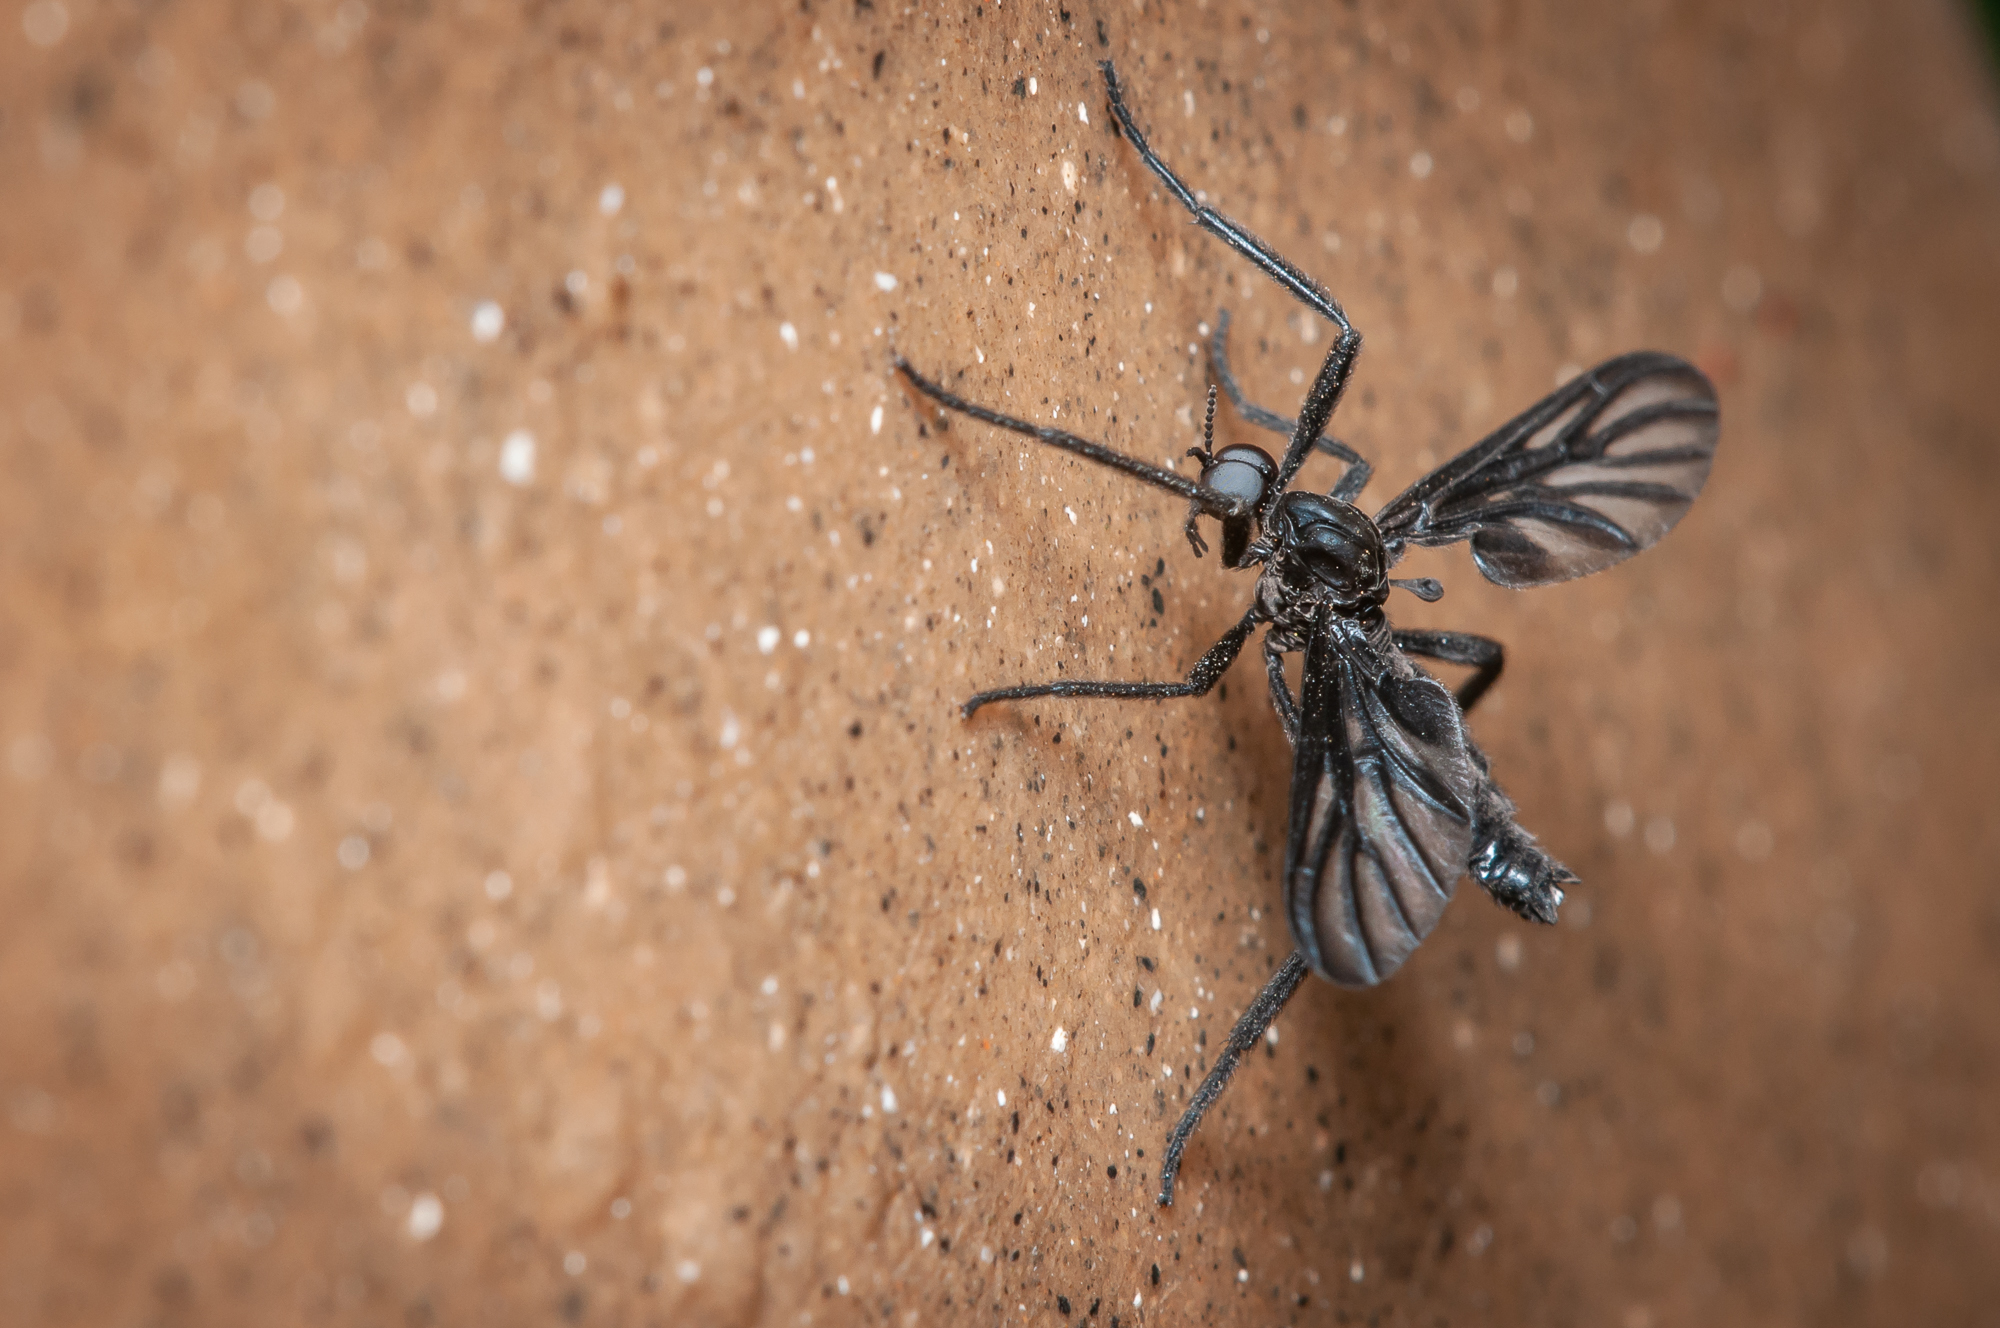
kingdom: Animalia
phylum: Arthropoda
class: Insecta
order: Diptera
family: Bibionidae
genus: Plecia
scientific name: Plecia plagiata
